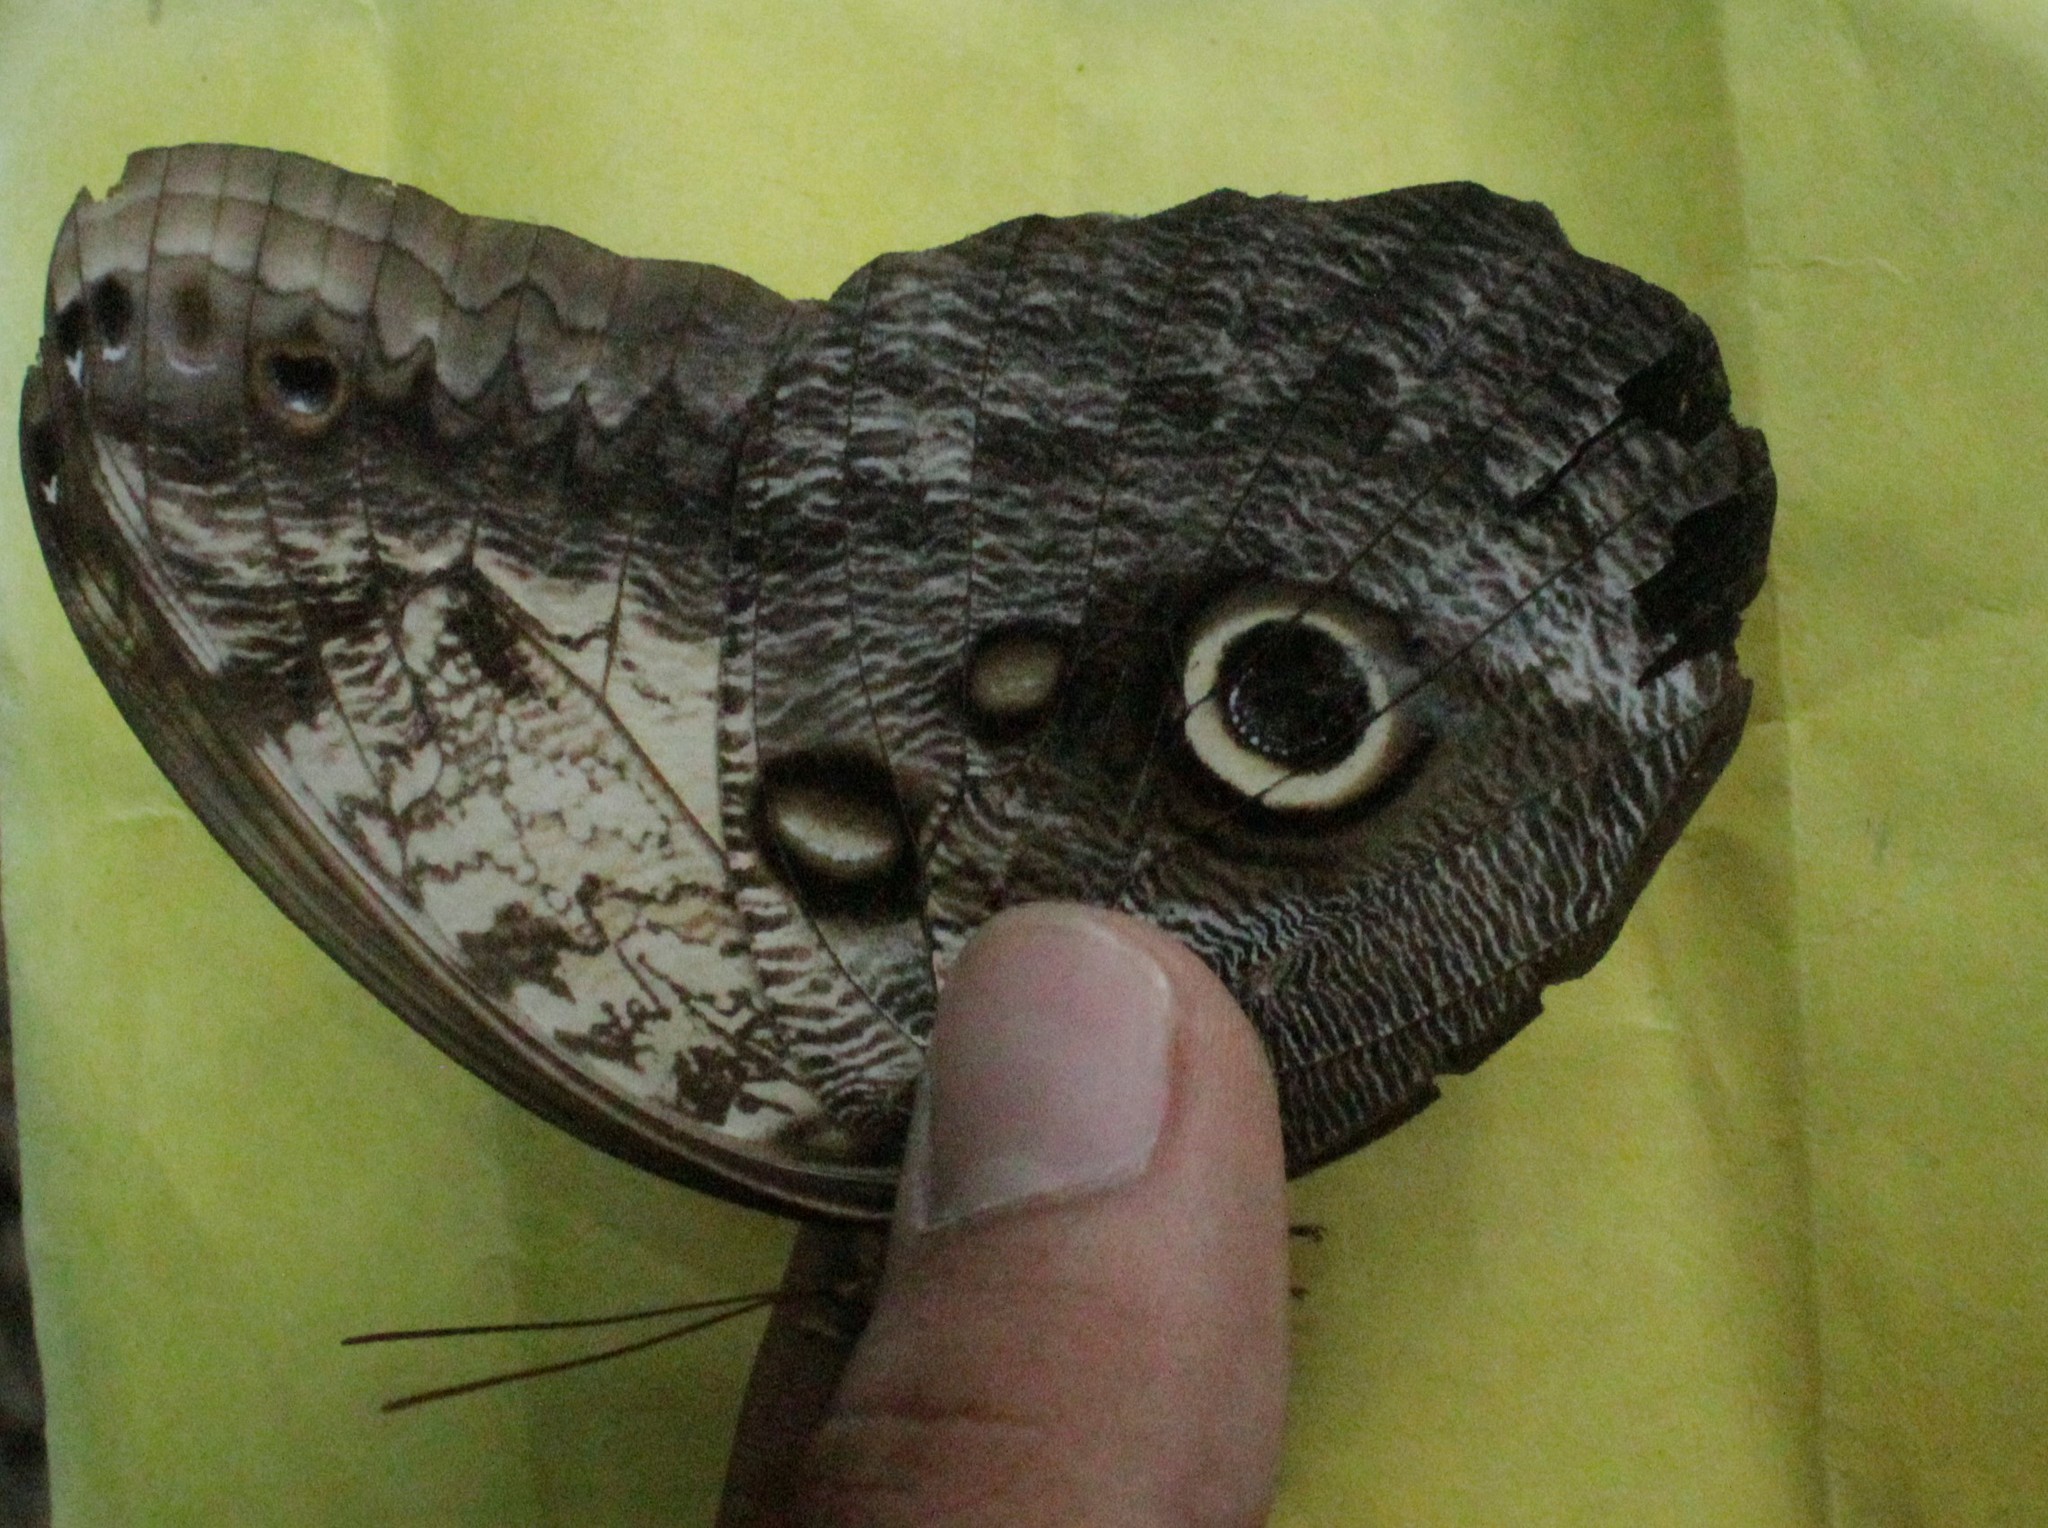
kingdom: Animalia
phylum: Arthropoda
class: Insecta
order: Lepidoptera
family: Nymphalidae
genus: Caligo
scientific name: Caligo telamonius
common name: Pale owl-butterfly
